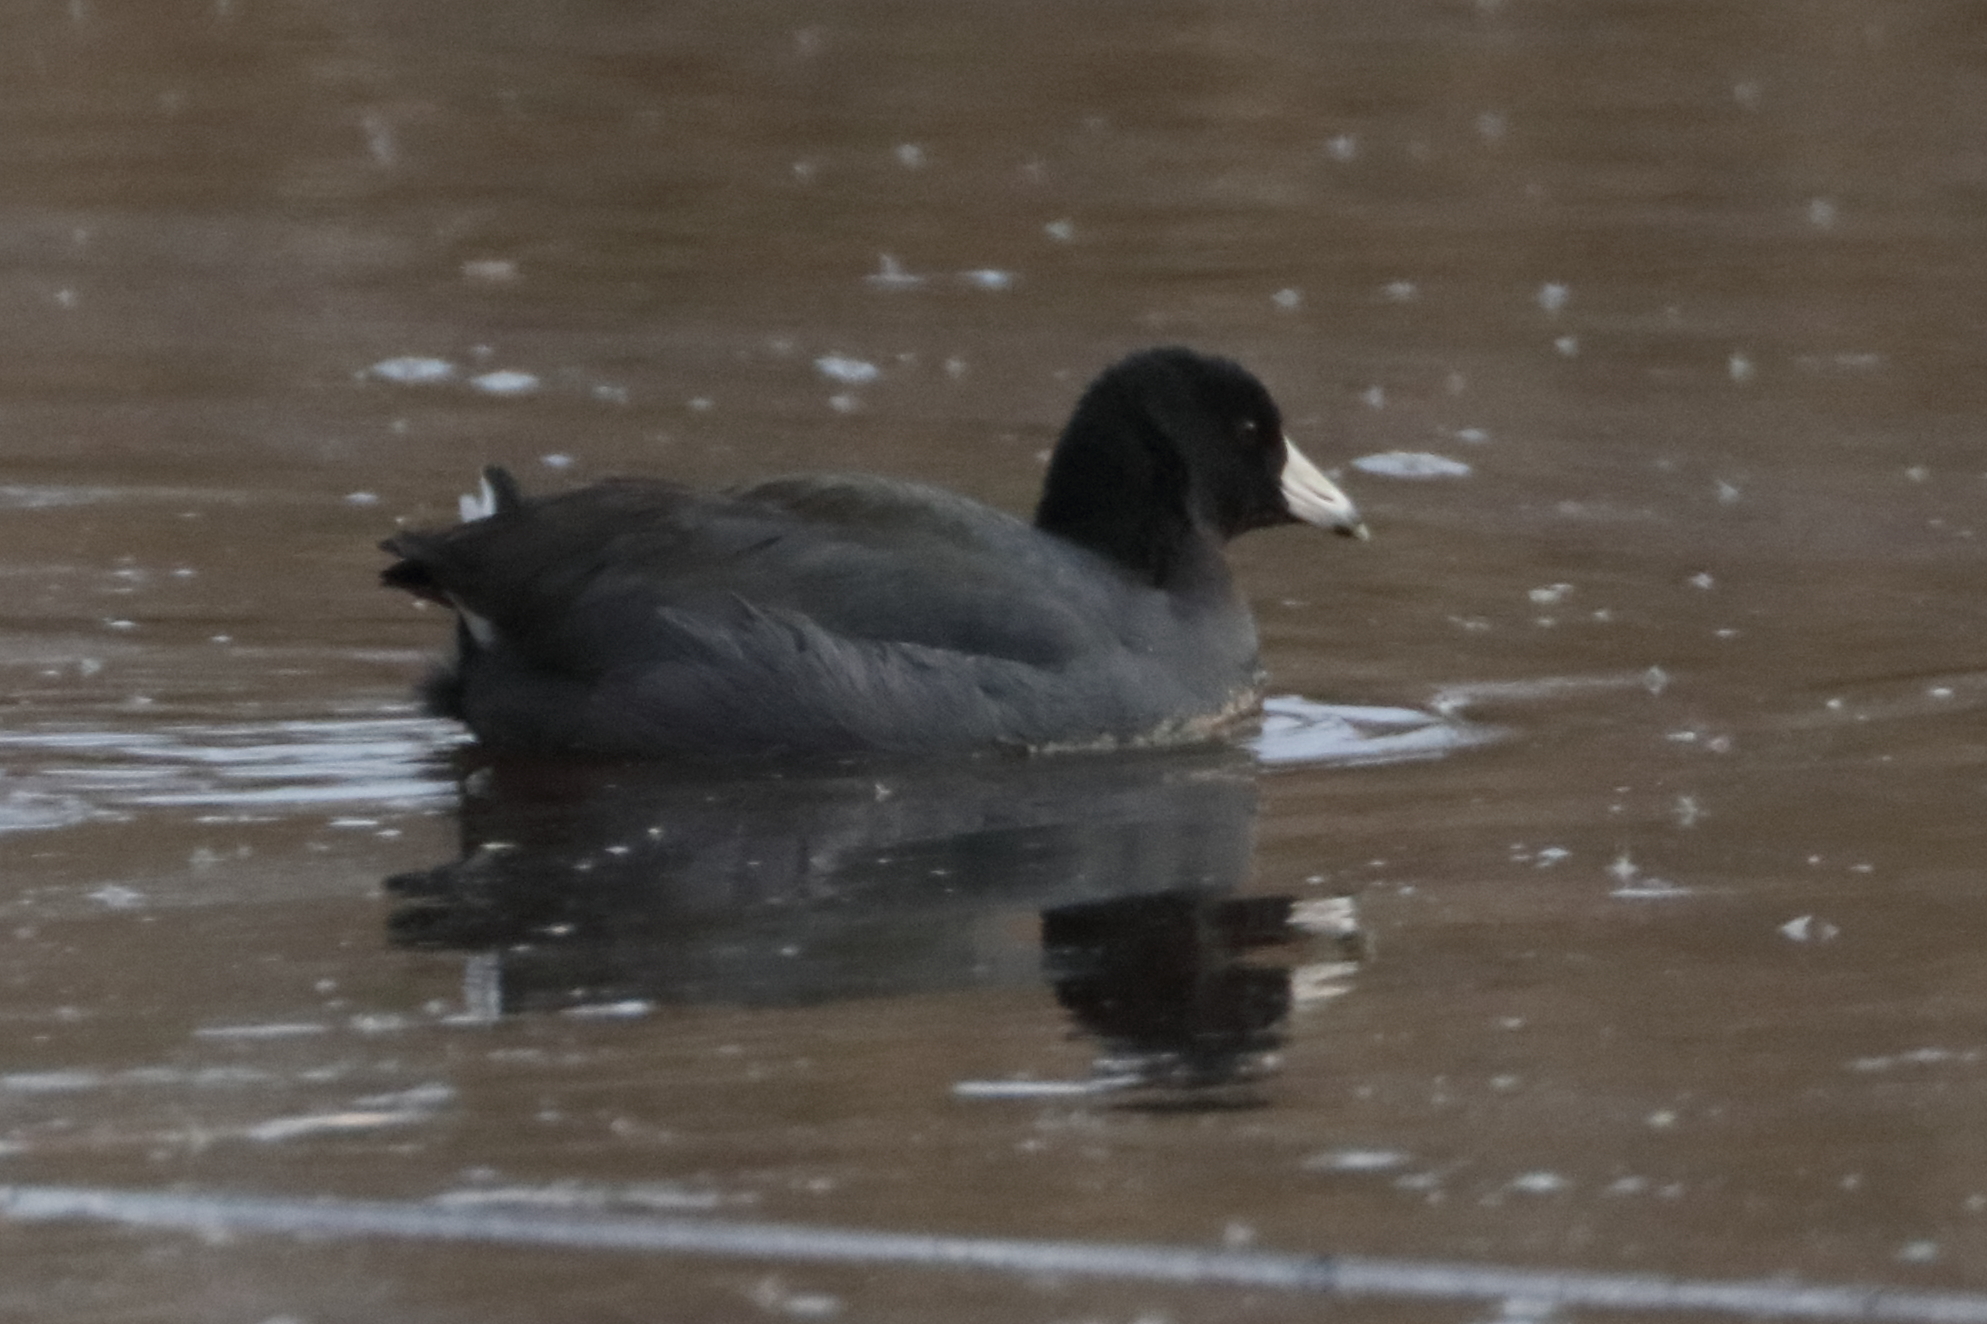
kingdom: Animalia
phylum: Chordata
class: Aves
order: Gruiformes
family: Rallidae
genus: Fulica
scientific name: Fulica americana
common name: American coot
